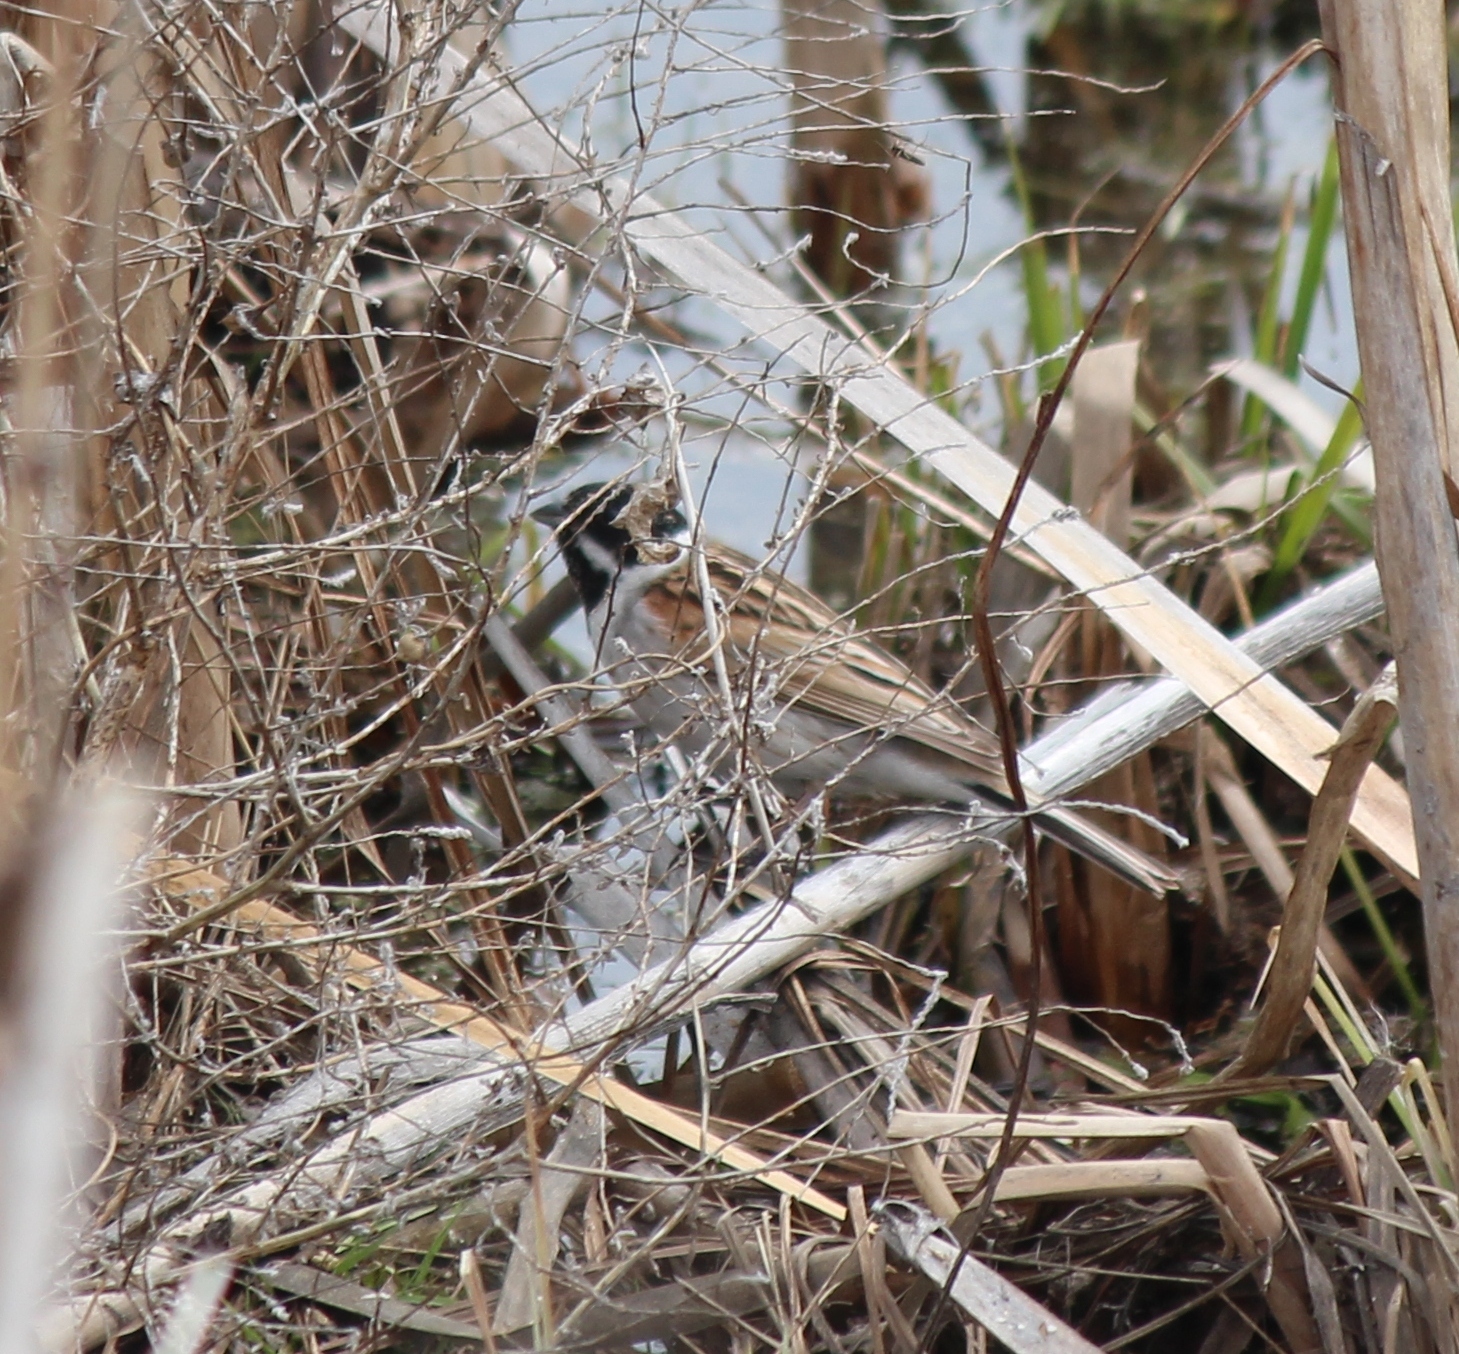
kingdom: Animalia
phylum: Chordata
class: Aves
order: Passeriformes
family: Emberizidae
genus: Emberiza
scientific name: Emberiza schoeniclus
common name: Reed bunting
